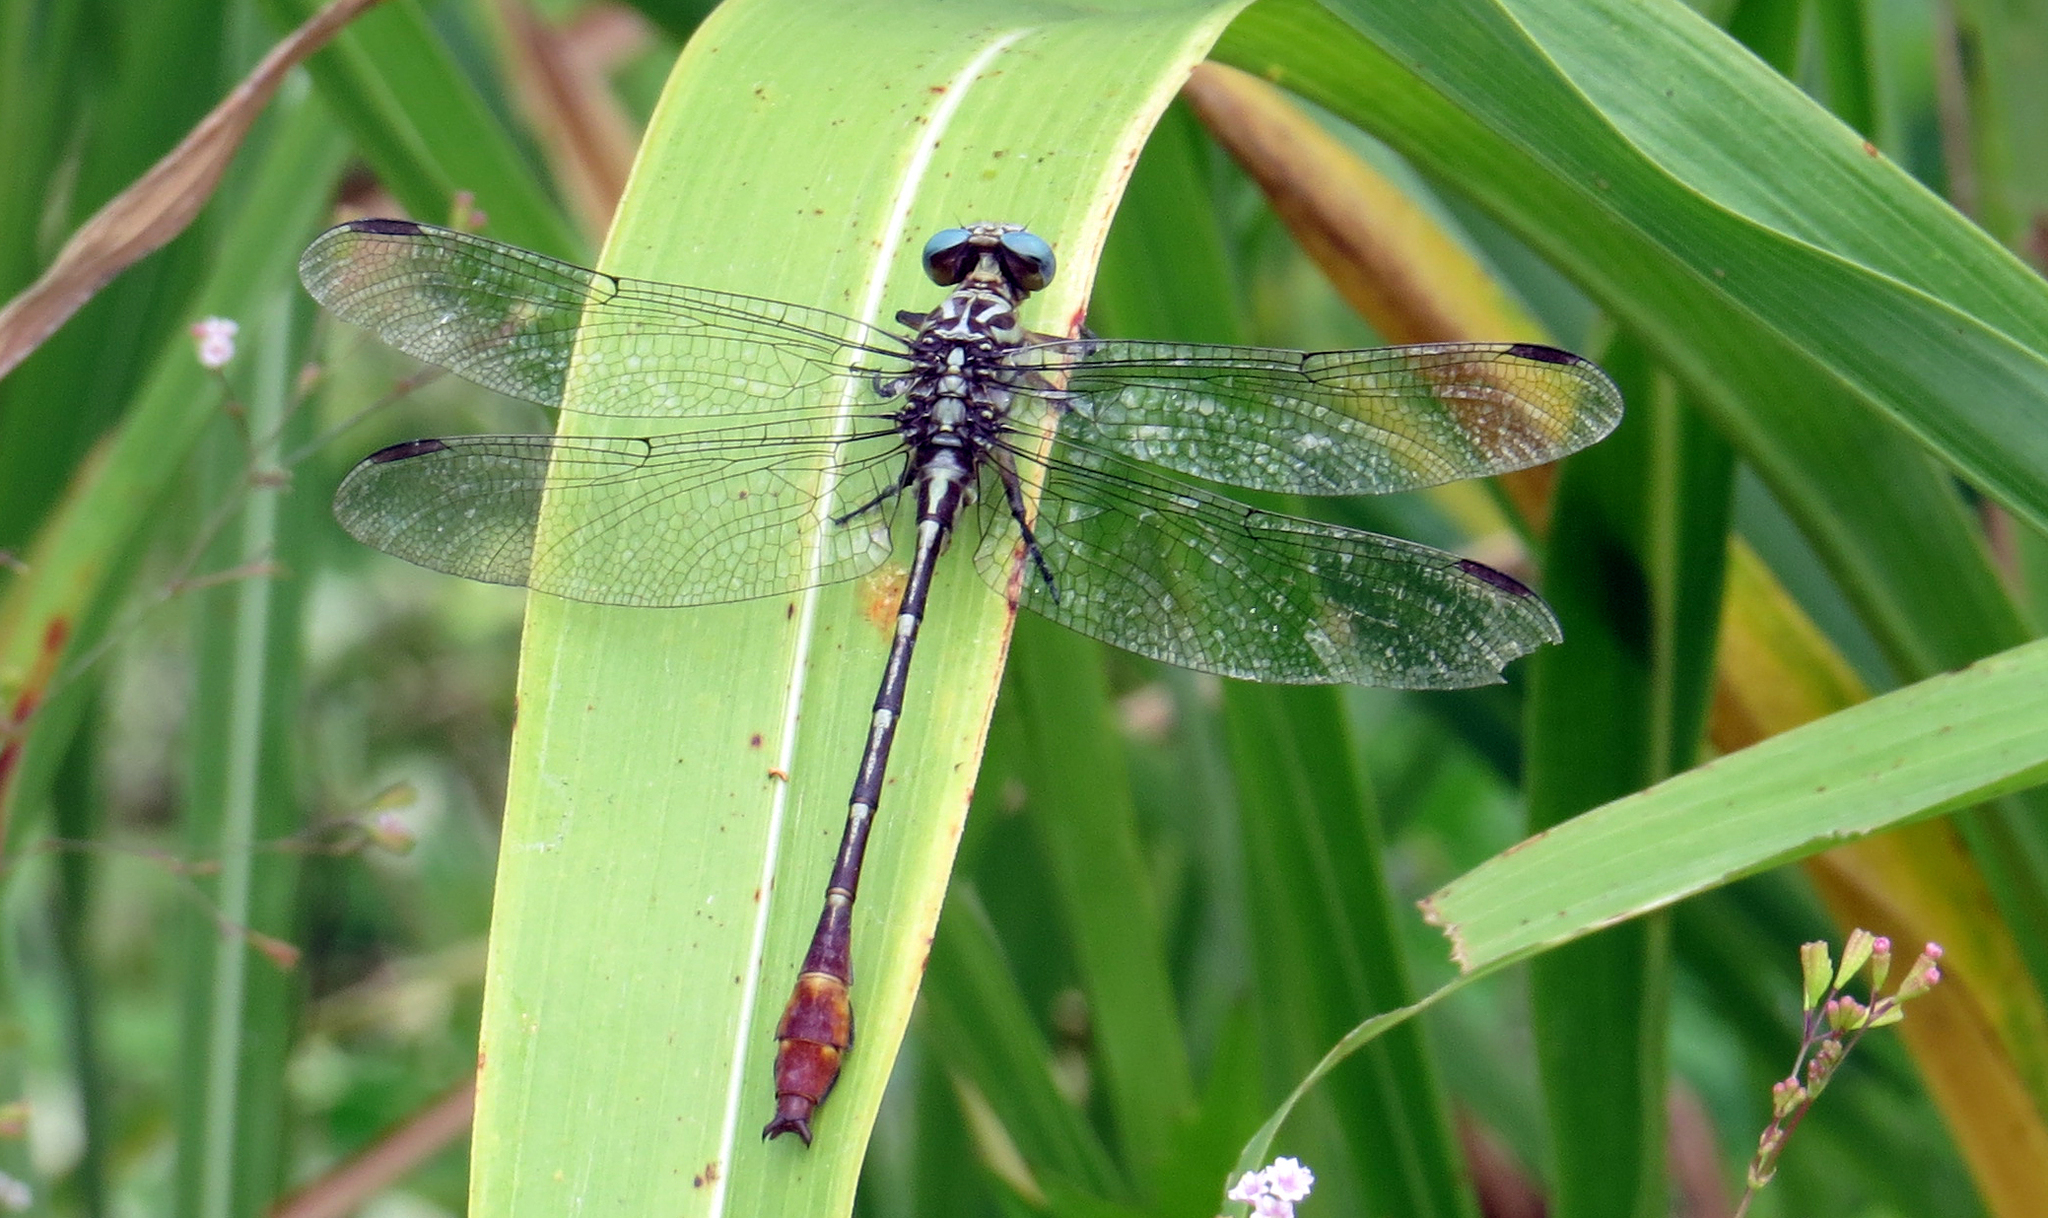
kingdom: Animalia
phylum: Arthropoda
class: Insecta
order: Odonata
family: Gomphidae
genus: Stylurus
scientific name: Stylurus plagiatus
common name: Russet-tipped clubtail
